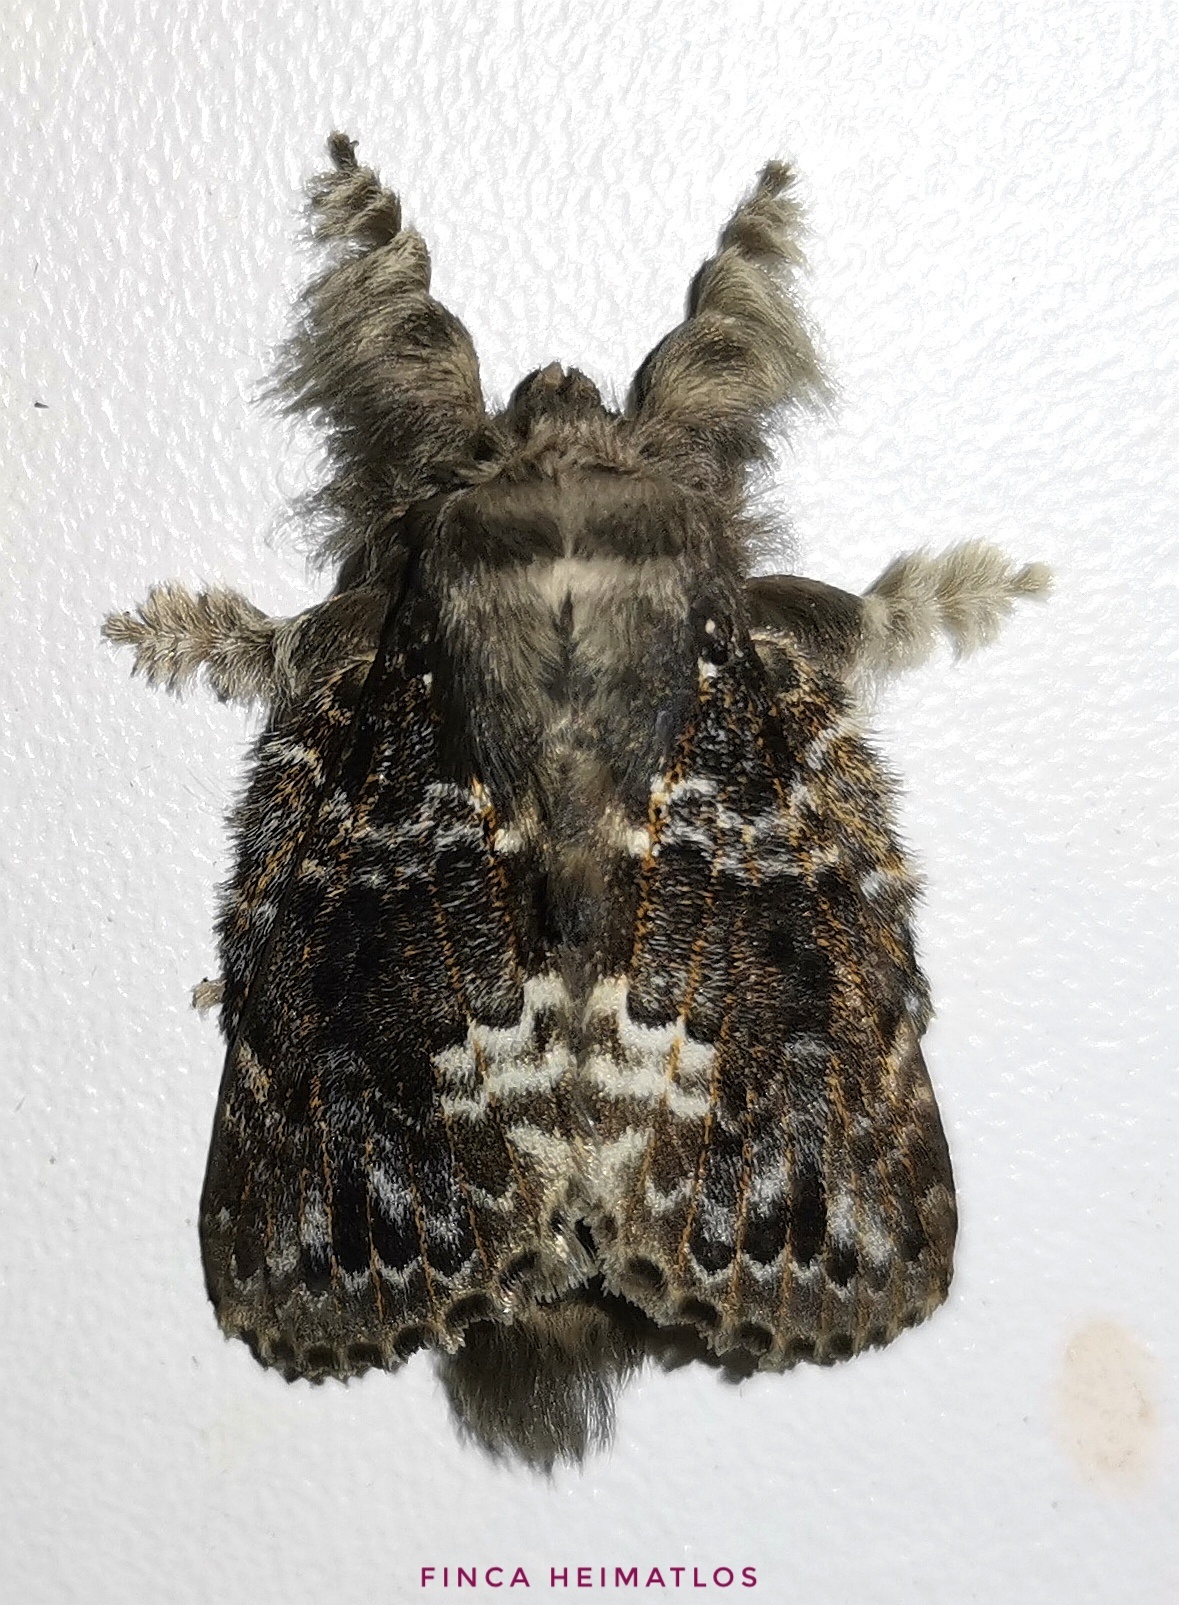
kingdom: Animalia
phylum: Arthropoda
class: Insecta
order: Lepidoptera
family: Lasiocampidae
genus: Euglyphis
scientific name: Euglyphis claudia
